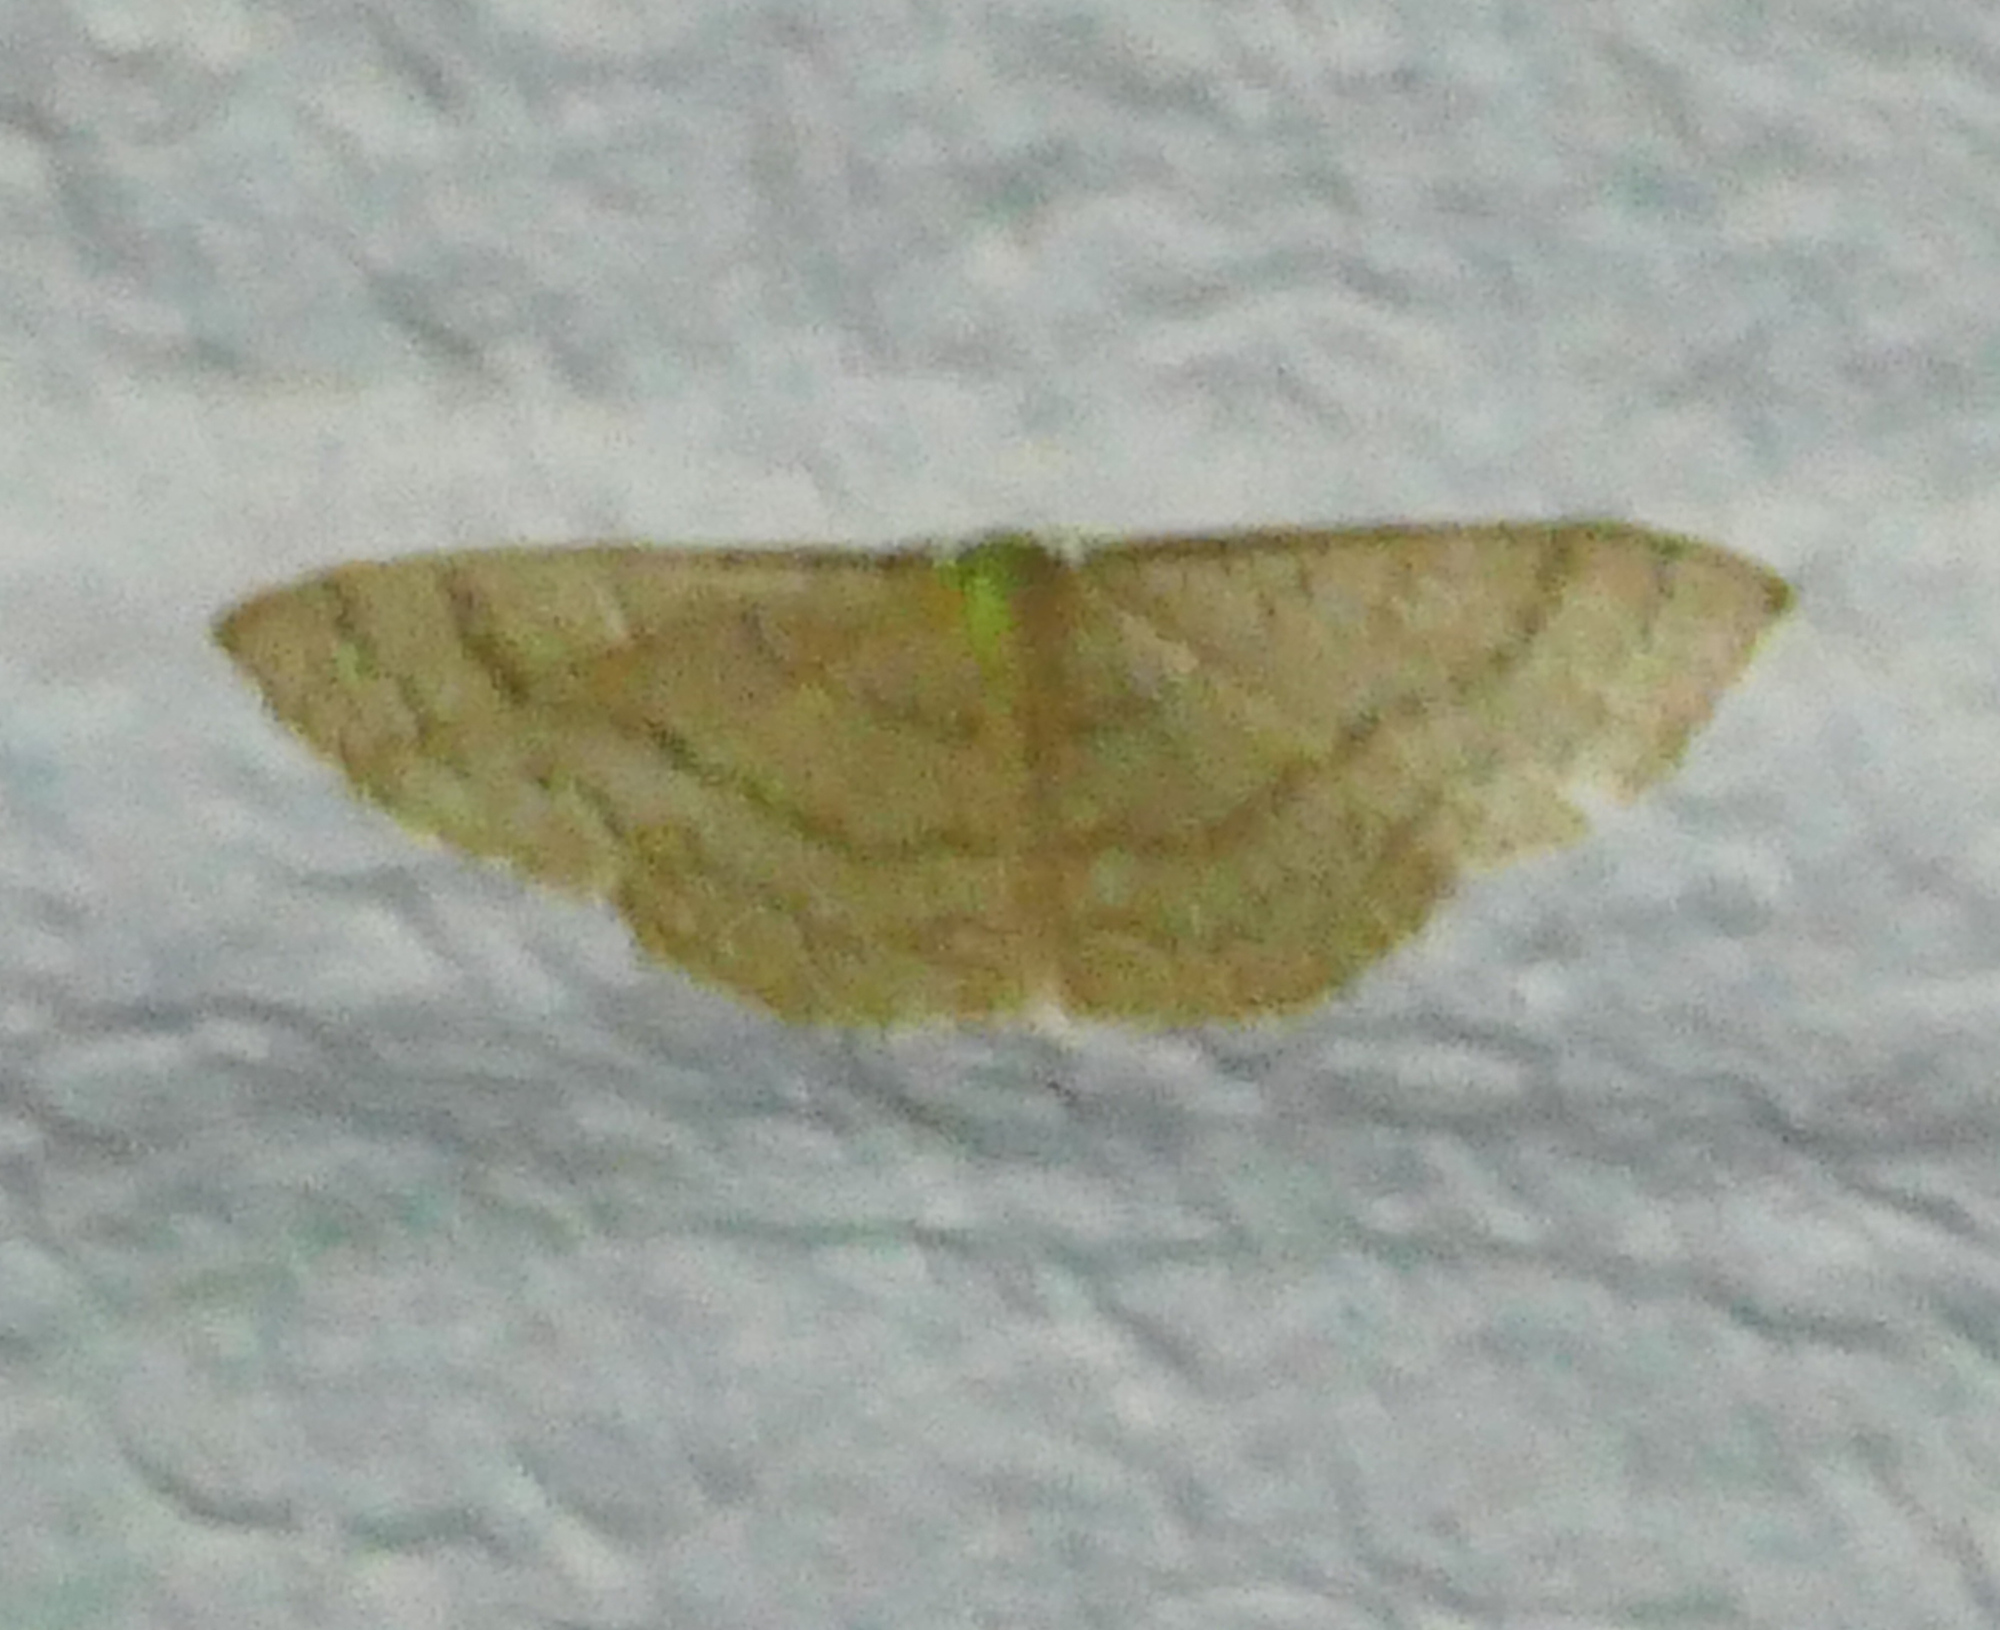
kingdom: Animalia
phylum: Arthropoda
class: Insecta
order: Lepidoptera
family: Geometridae
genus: Pleuroprucha
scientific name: Pleuroprucha insulsaria
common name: Common tan wave
